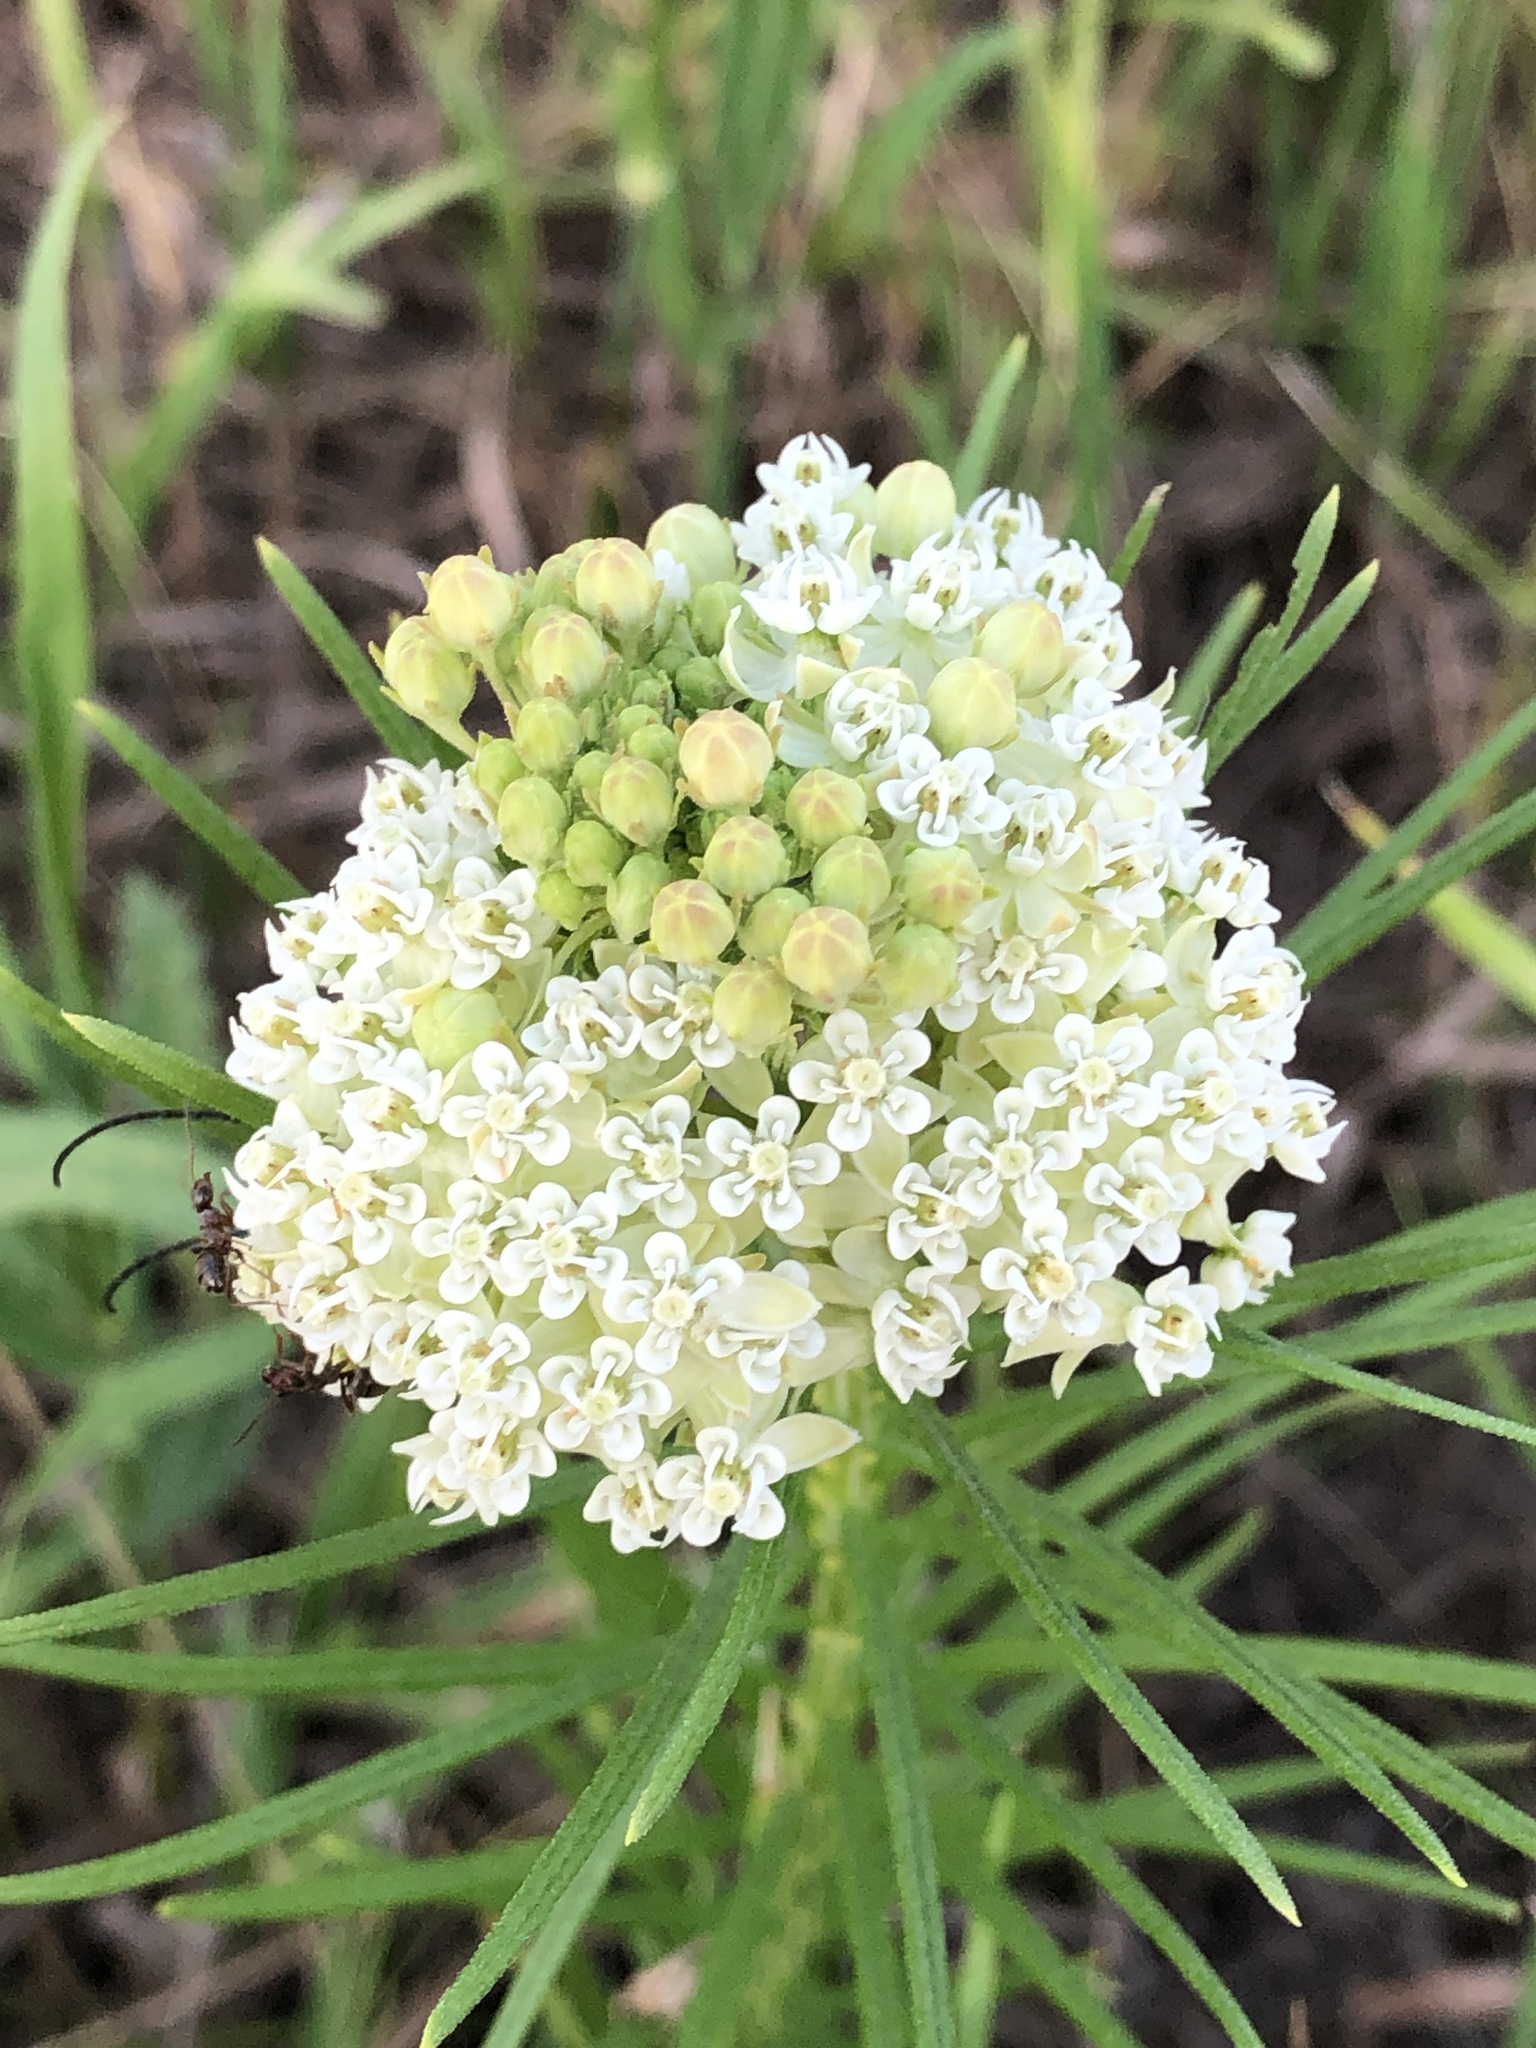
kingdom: Plantae
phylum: Tracheophyta
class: Magnoliopsida
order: Gentianales
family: Apocynaceae
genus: Asclepias
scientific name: Asclepias verticillata
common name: Eastern whorled milkweed
